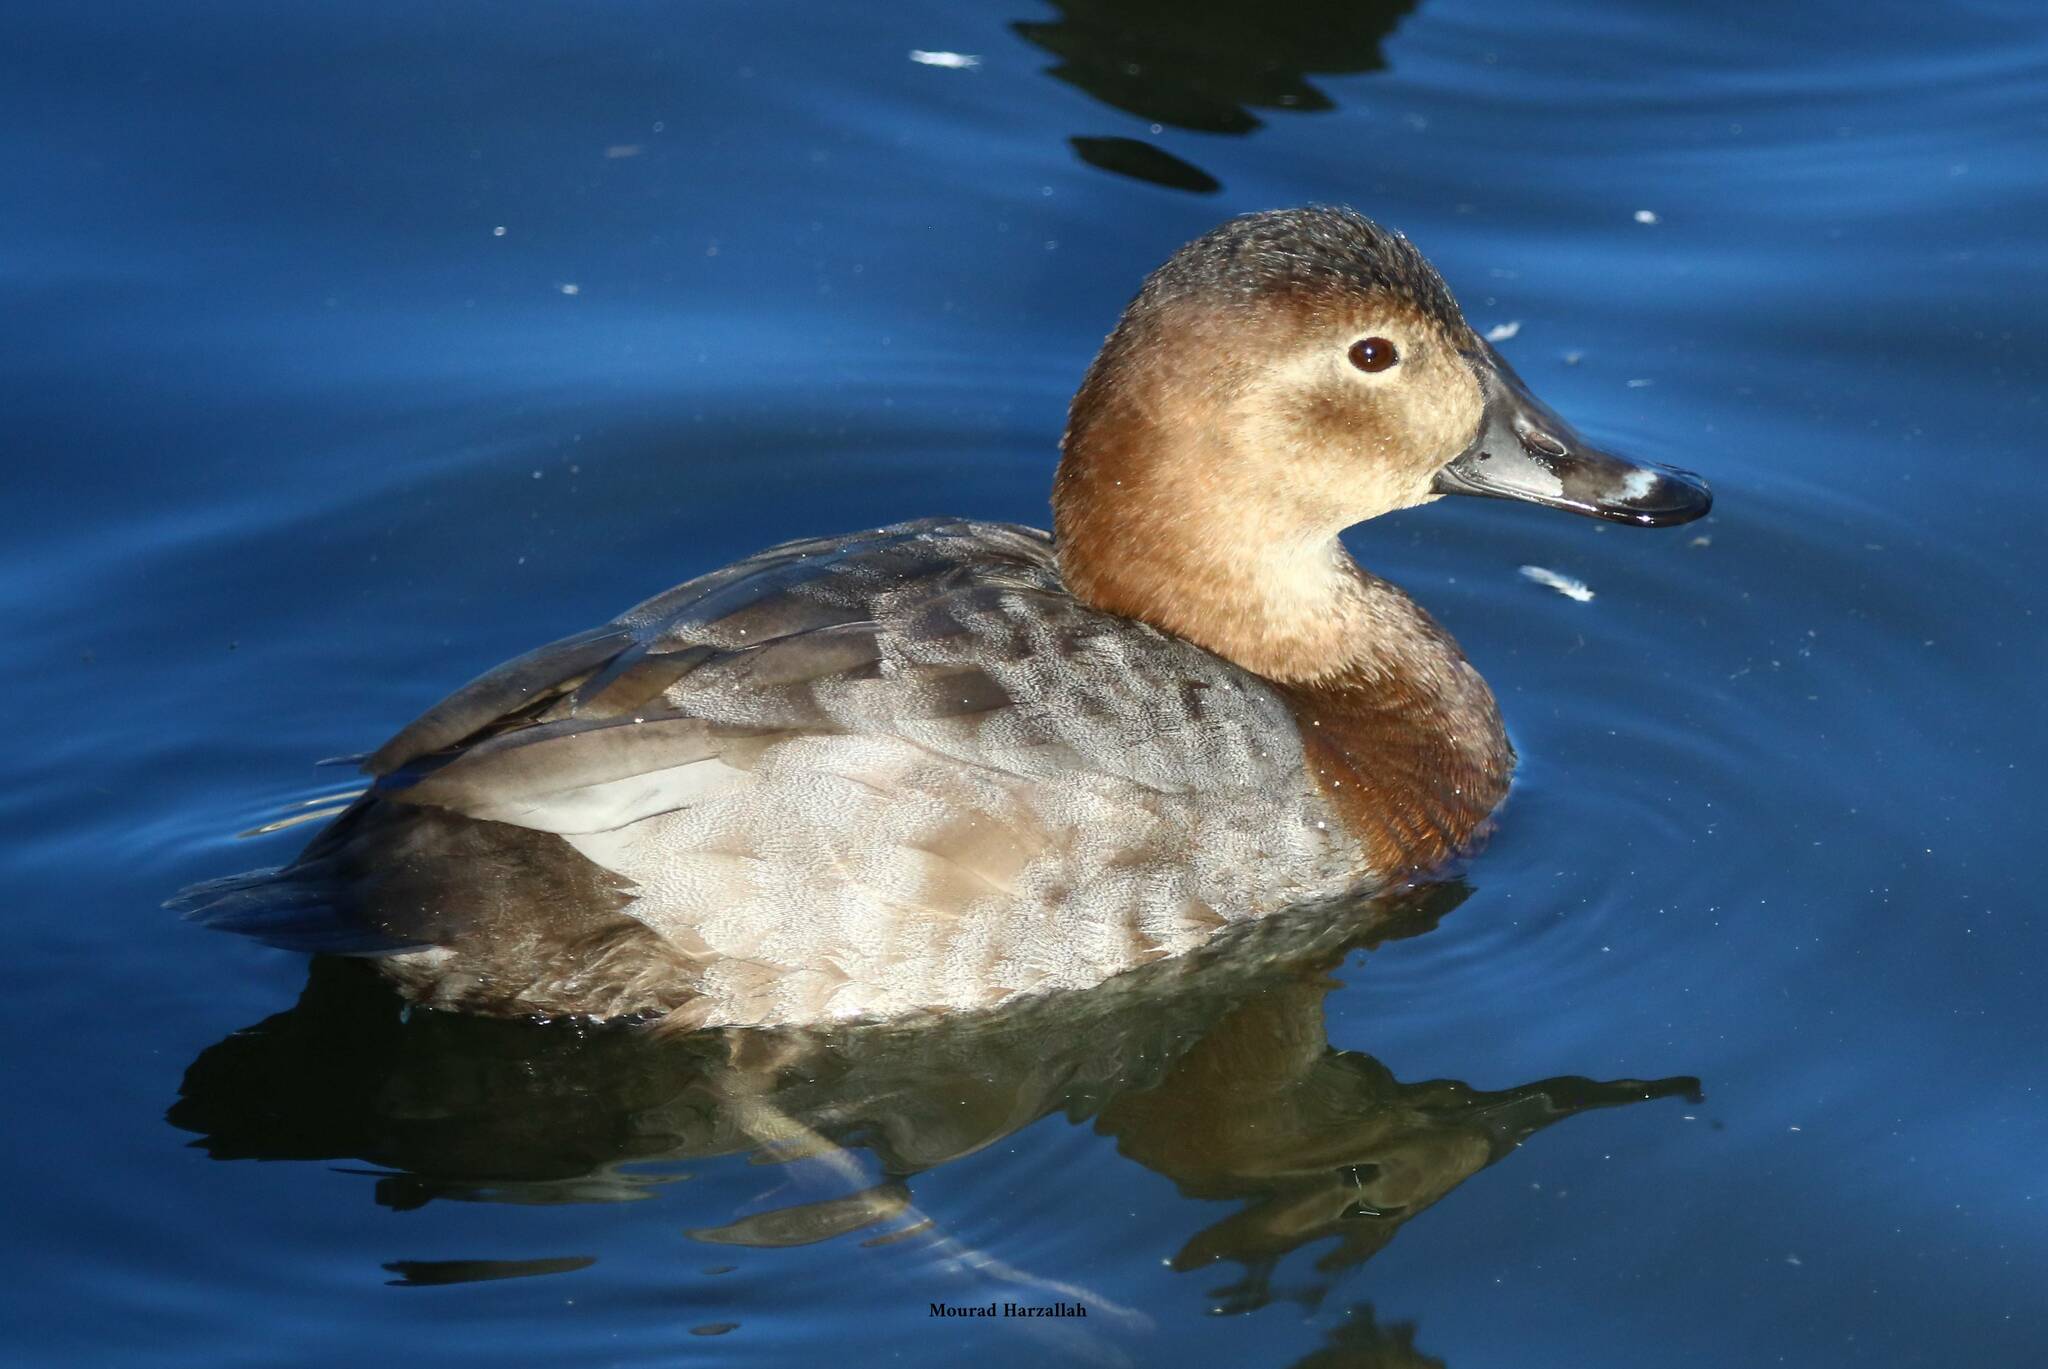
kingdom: Animalia
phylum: Chordata
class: Aves
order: Anseriformes
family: Anatidae
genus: Aythya
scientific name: Aythya ferina
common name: Common pochard
